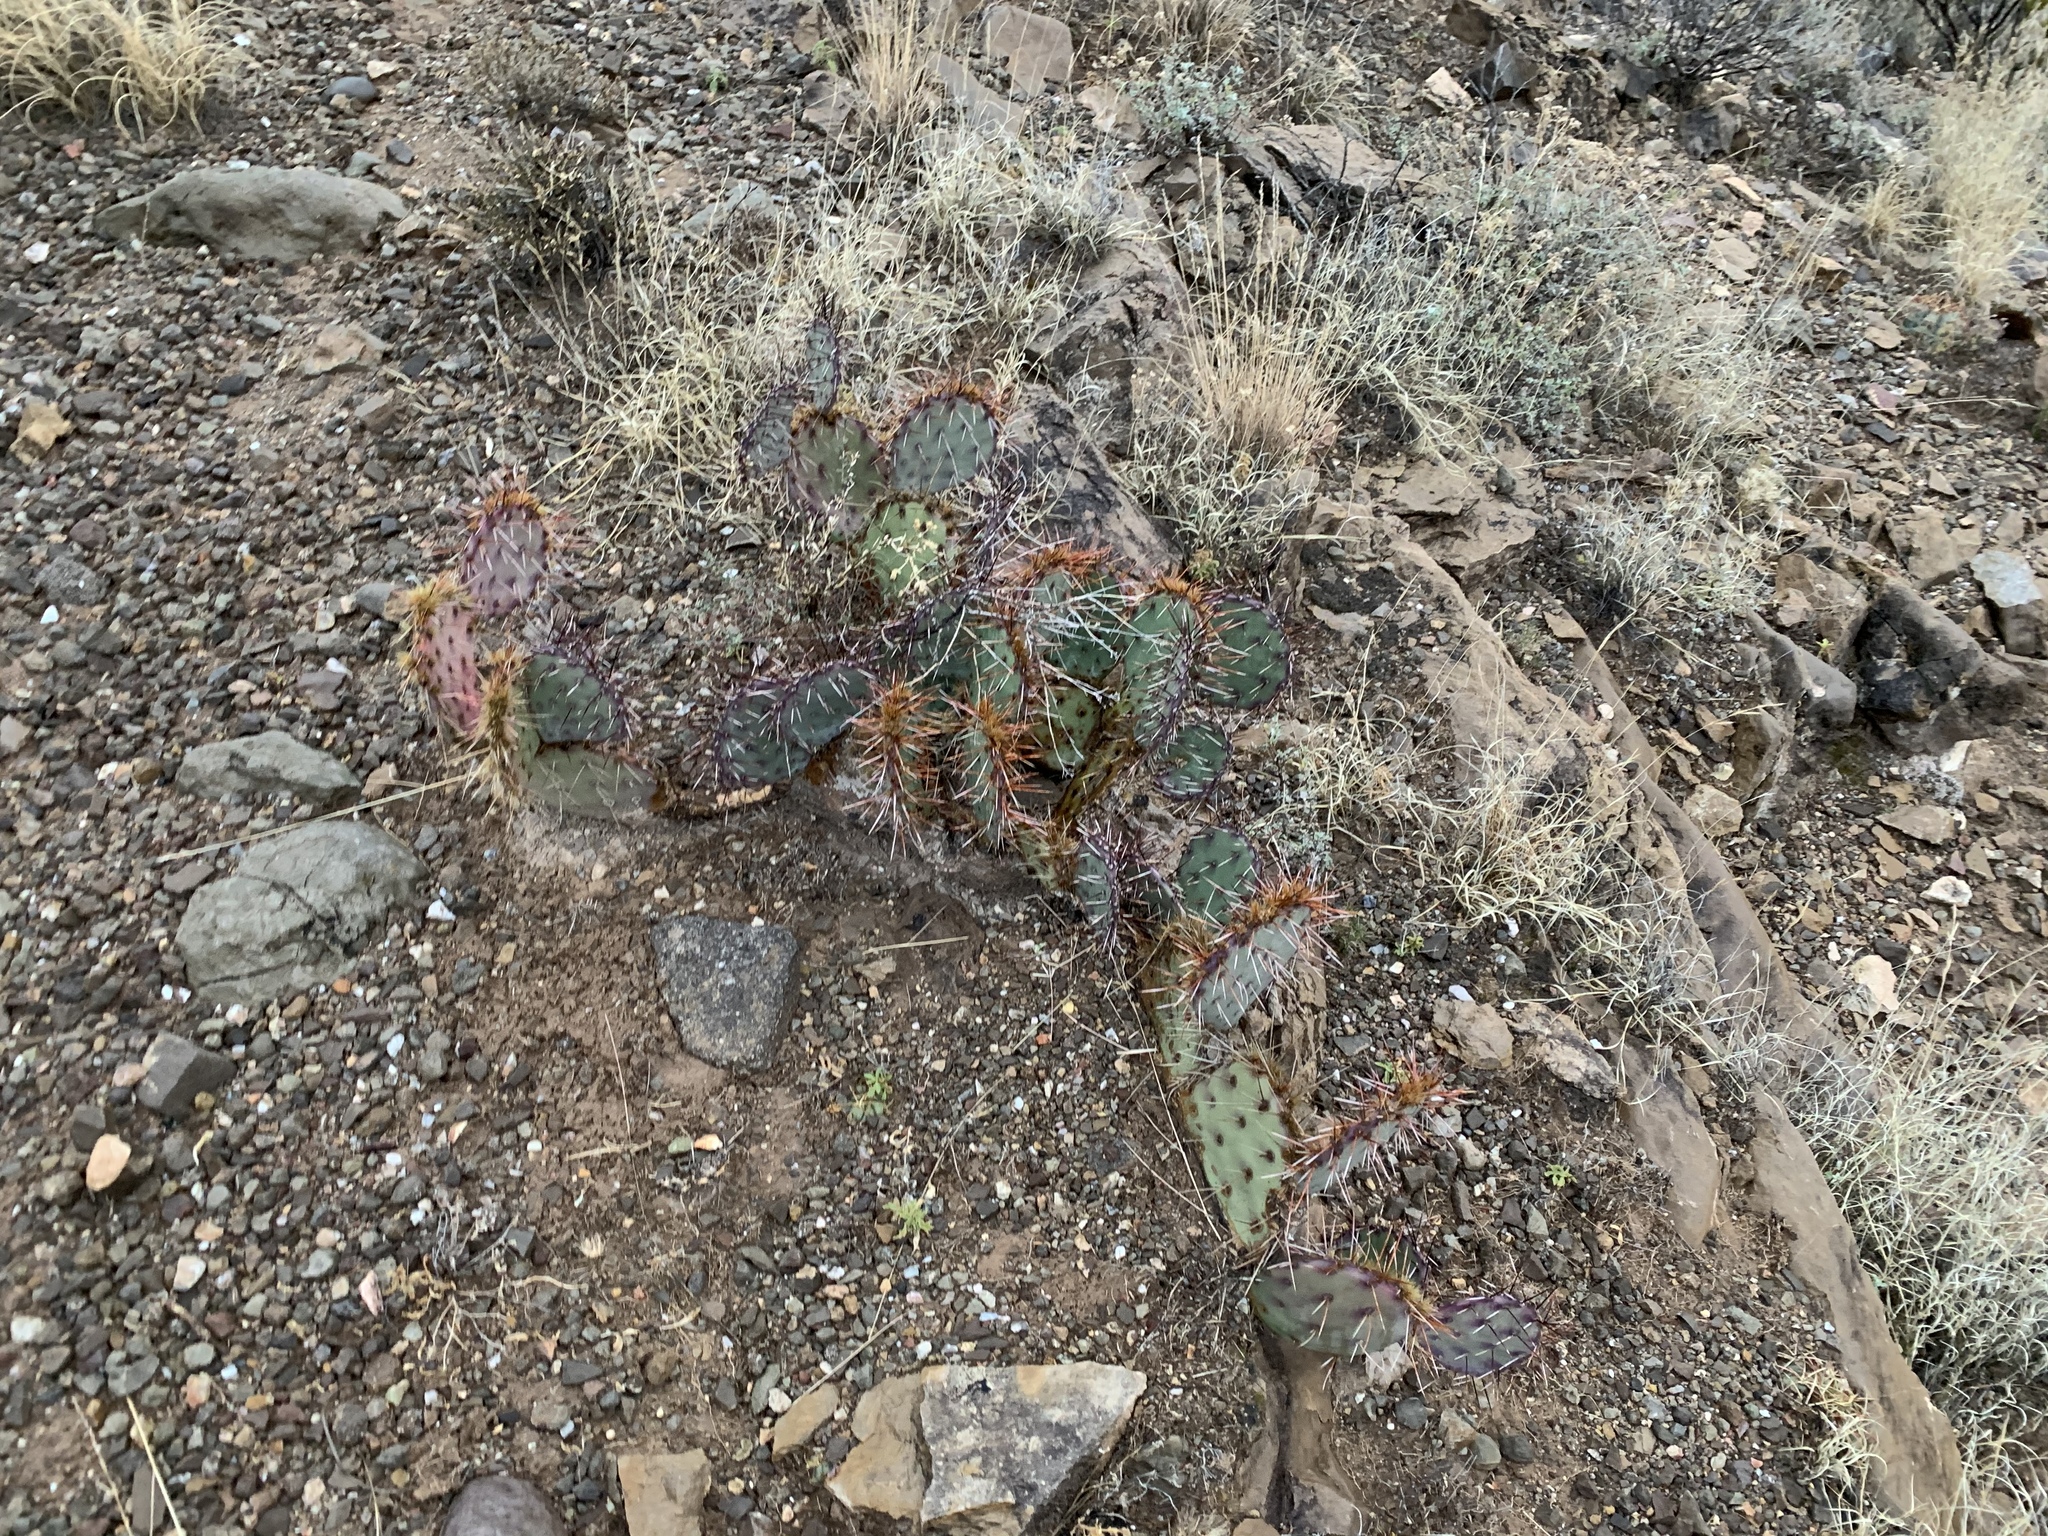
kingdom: Plantae
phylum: Tracheophyta
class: Magnoliopsida
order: Caryophyllales
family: Cactaceae
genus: Opuntia
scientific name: Opuntia macrocentra
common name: Purple prickly-pear
